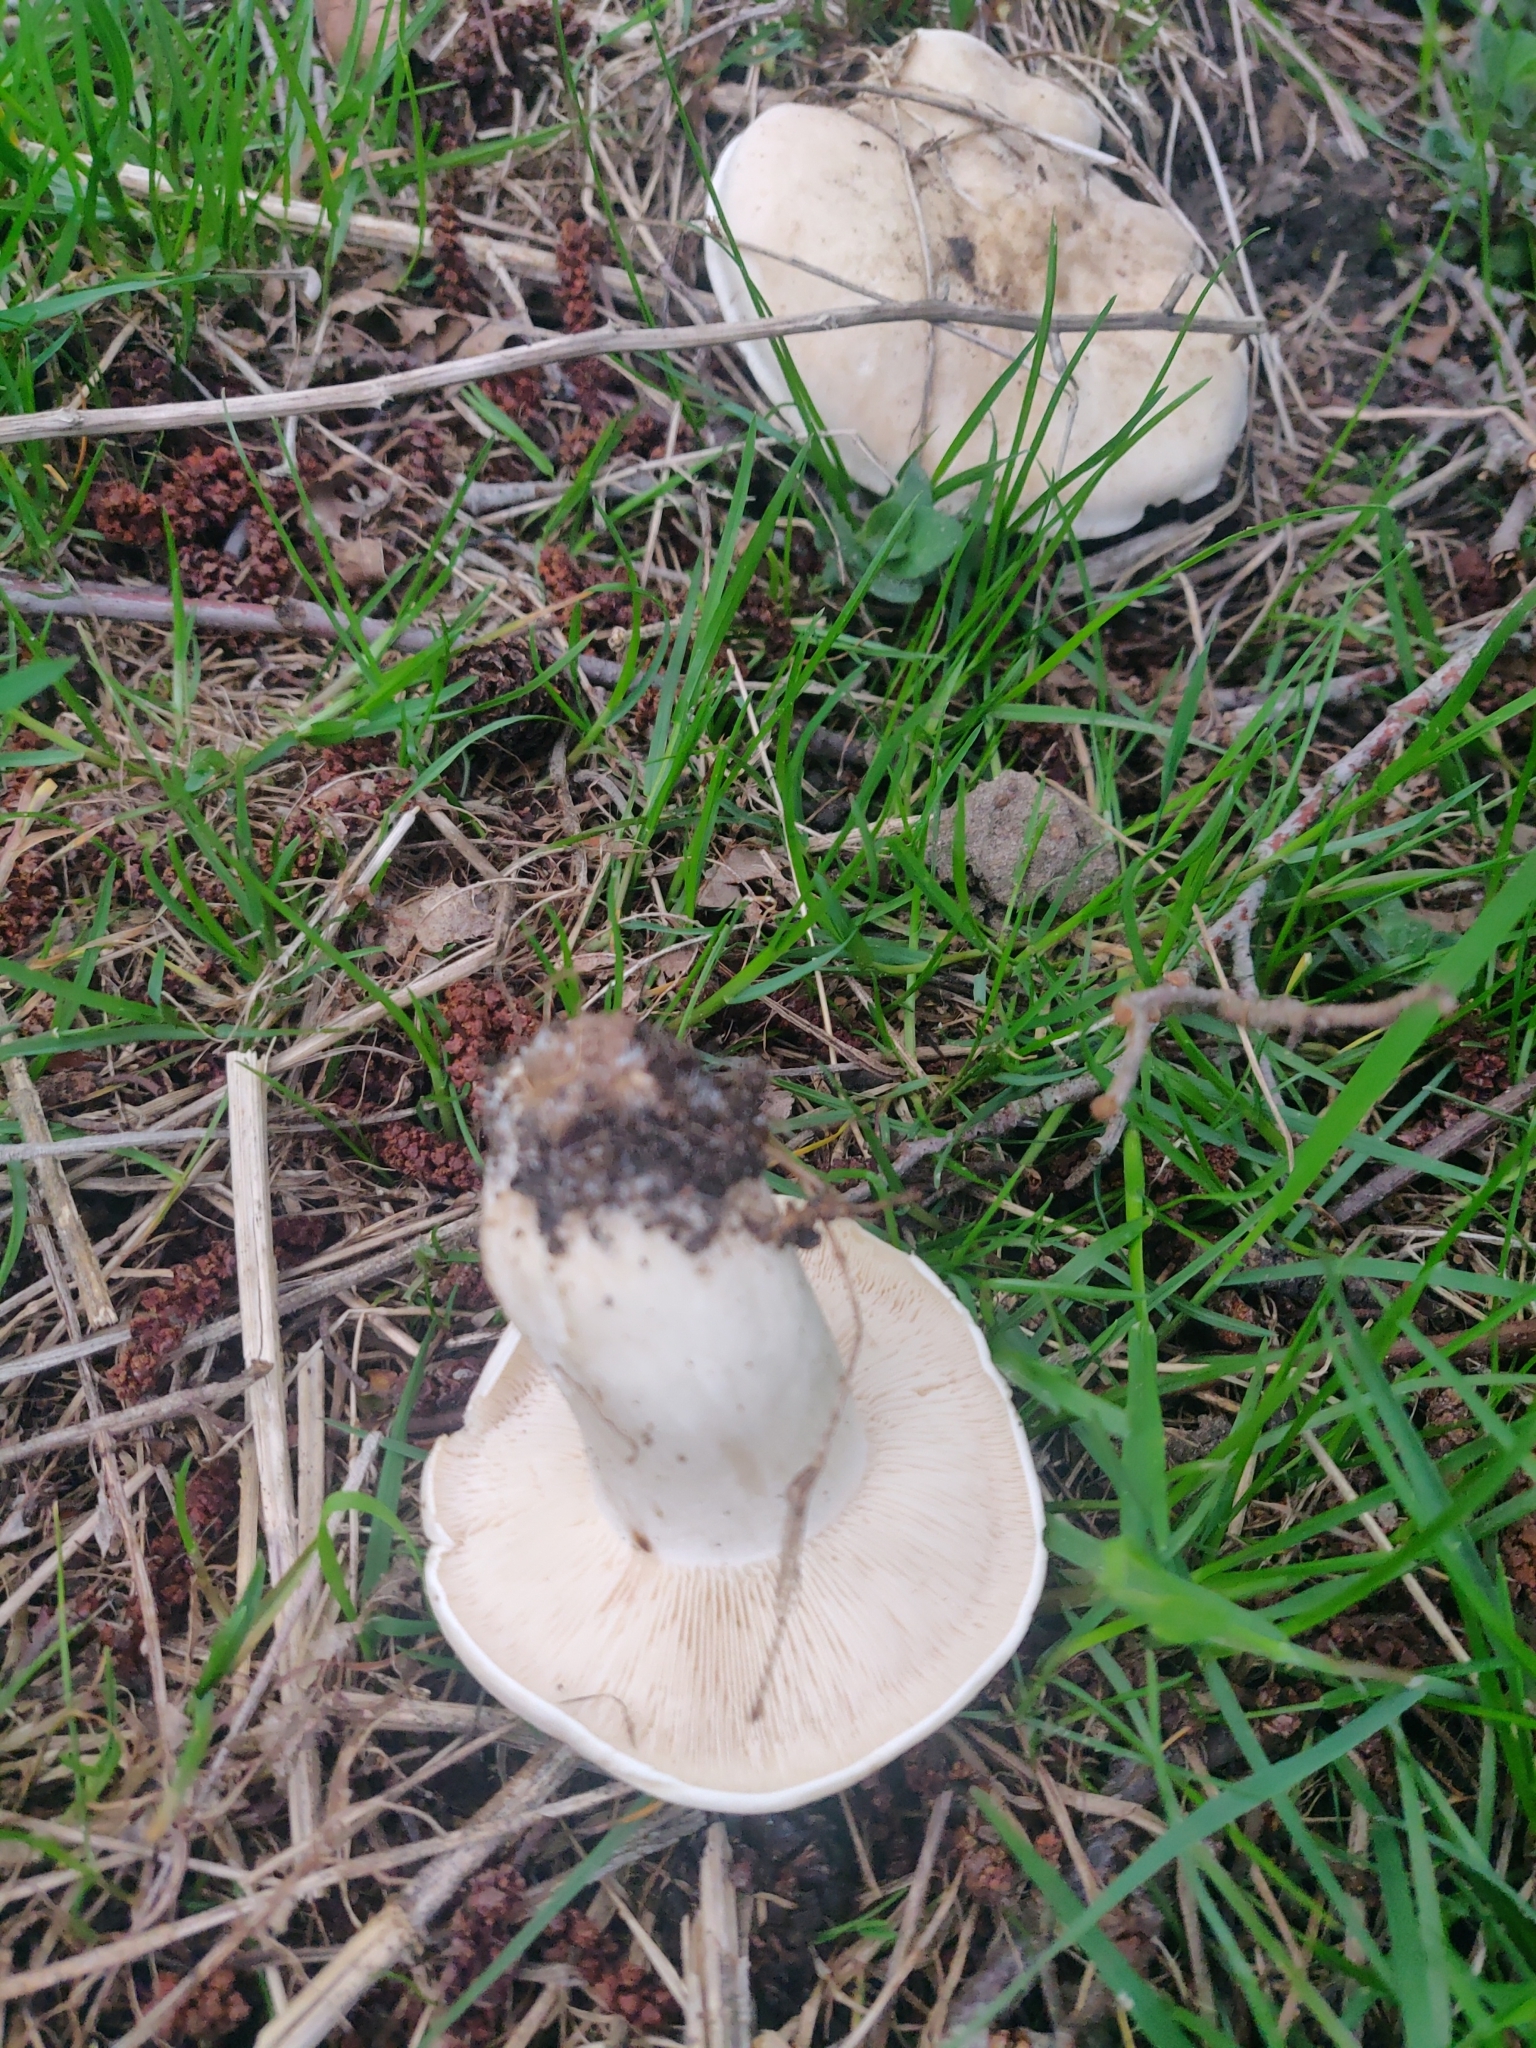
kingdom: Fungi
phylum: Basidiomycota
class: Agaricomycetes
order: Agaricales
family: Lyophyllaceae
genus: Calocybe
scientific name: Calocybe gambosa
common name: St. george's mushroom
